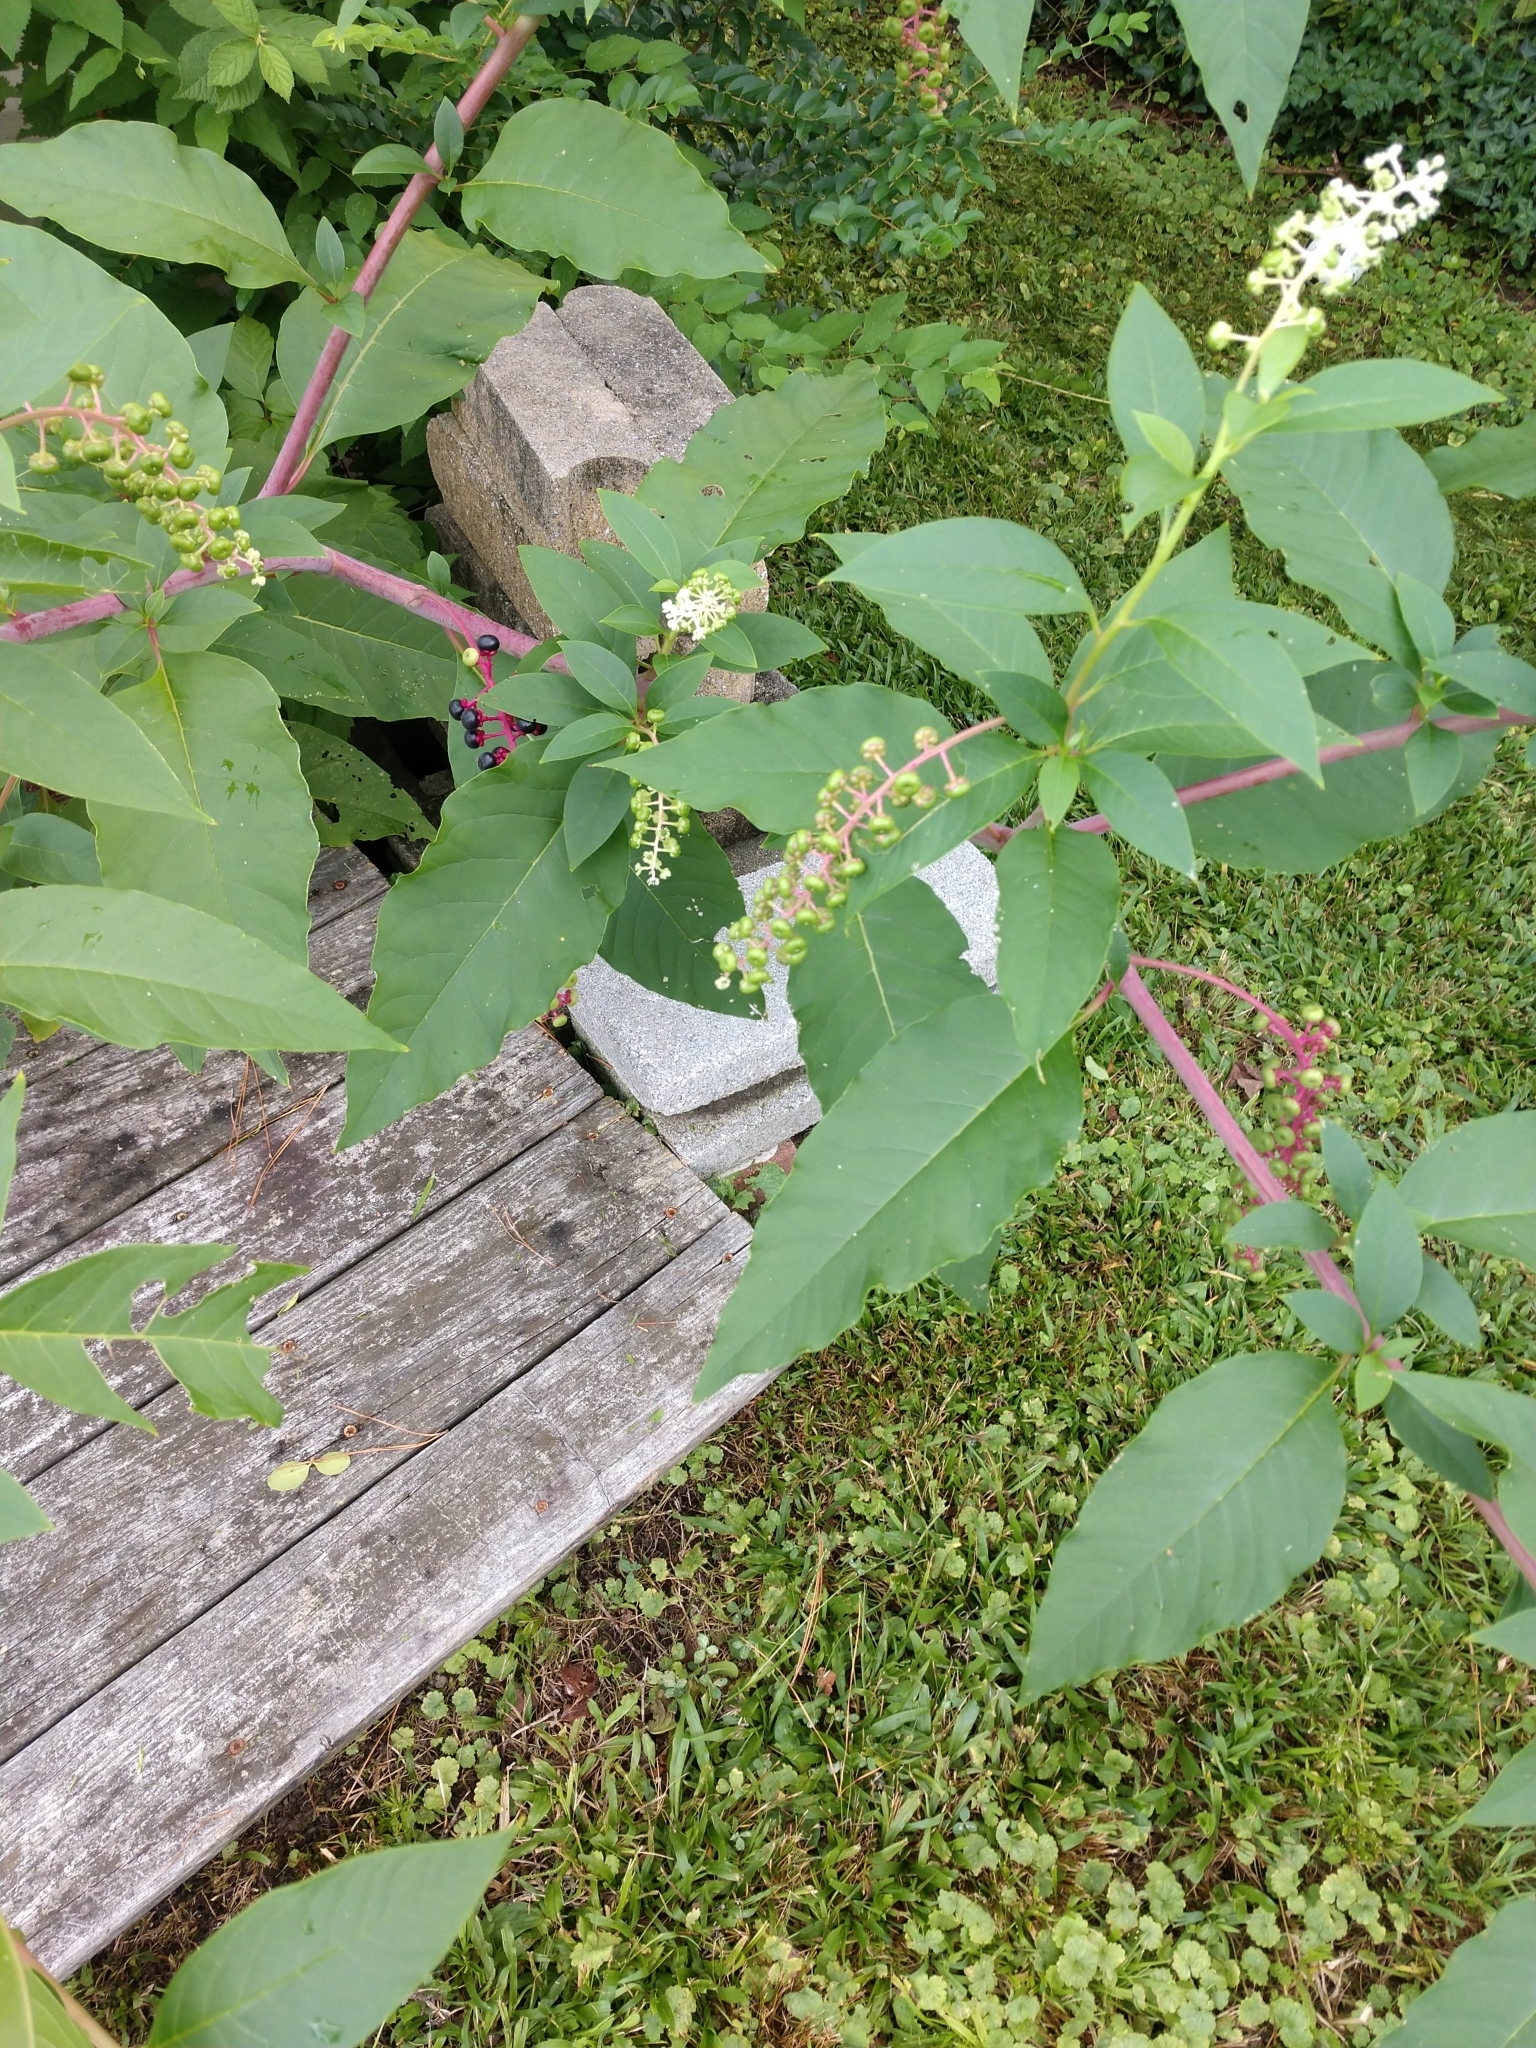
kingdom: Plantae
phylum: Tracheophyta
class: Magnoliopsida
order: Caryophyllales
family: Phytolaccaceae
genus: Phytolacca
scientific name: Phytolacca americana
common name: American pokeweed
